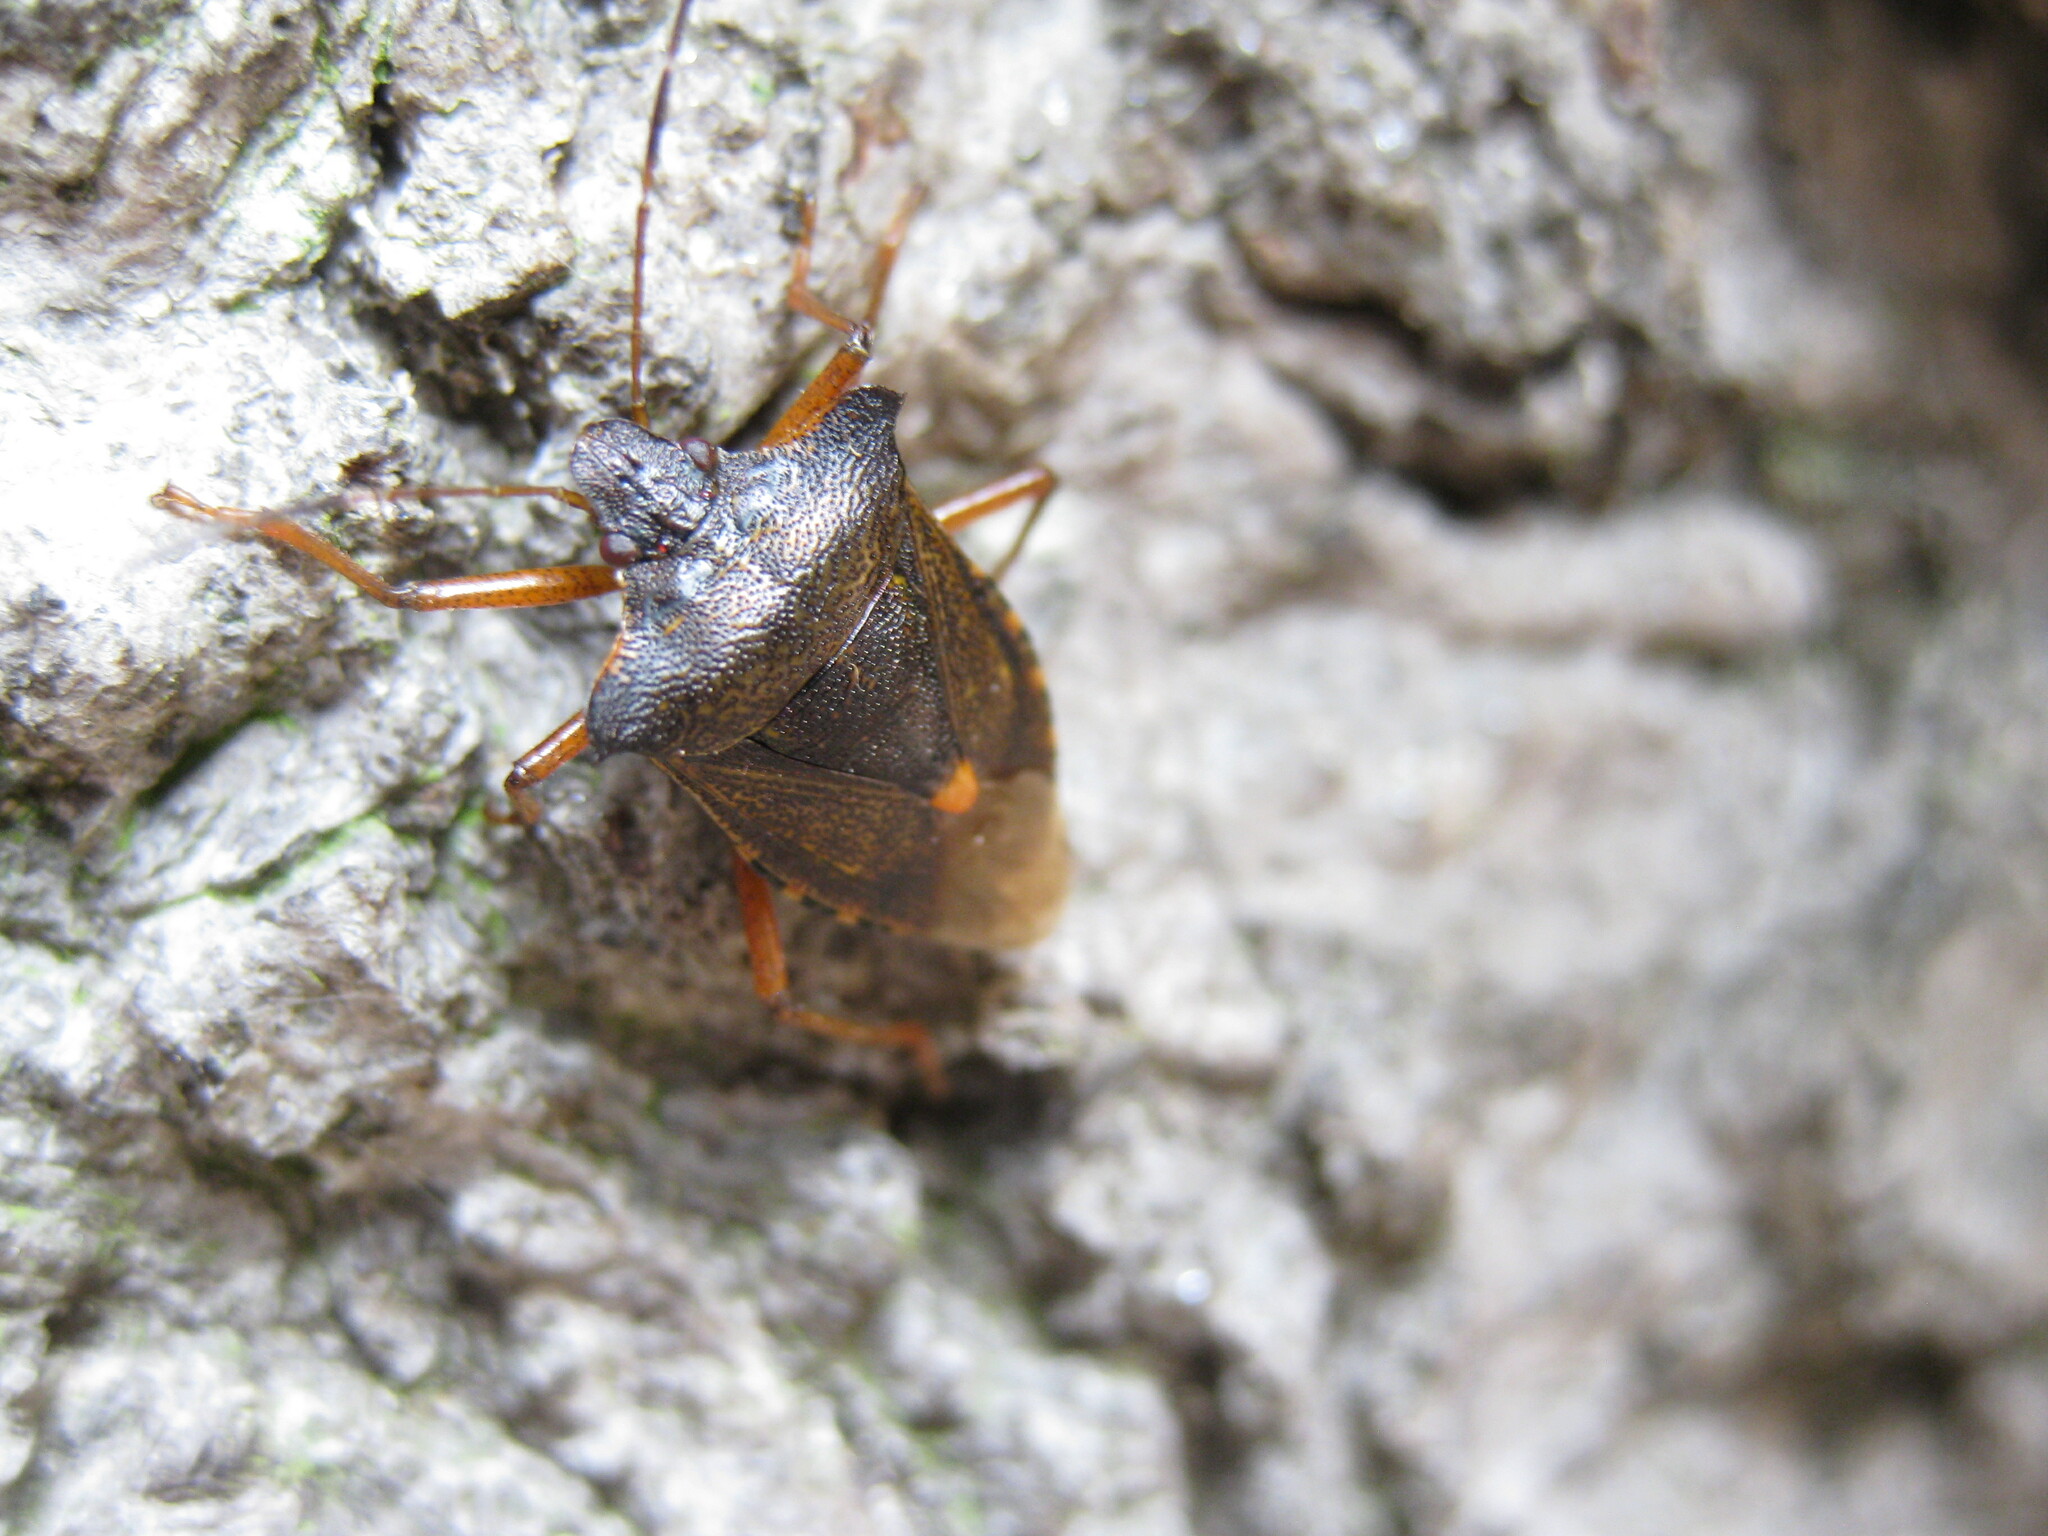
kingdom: Animalia
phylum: Arthropoda
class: Insecta
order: Hemiptera
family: Pentatomidae
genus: Pentatoma
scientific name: Pentatoma rufipes
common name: Forest bug
